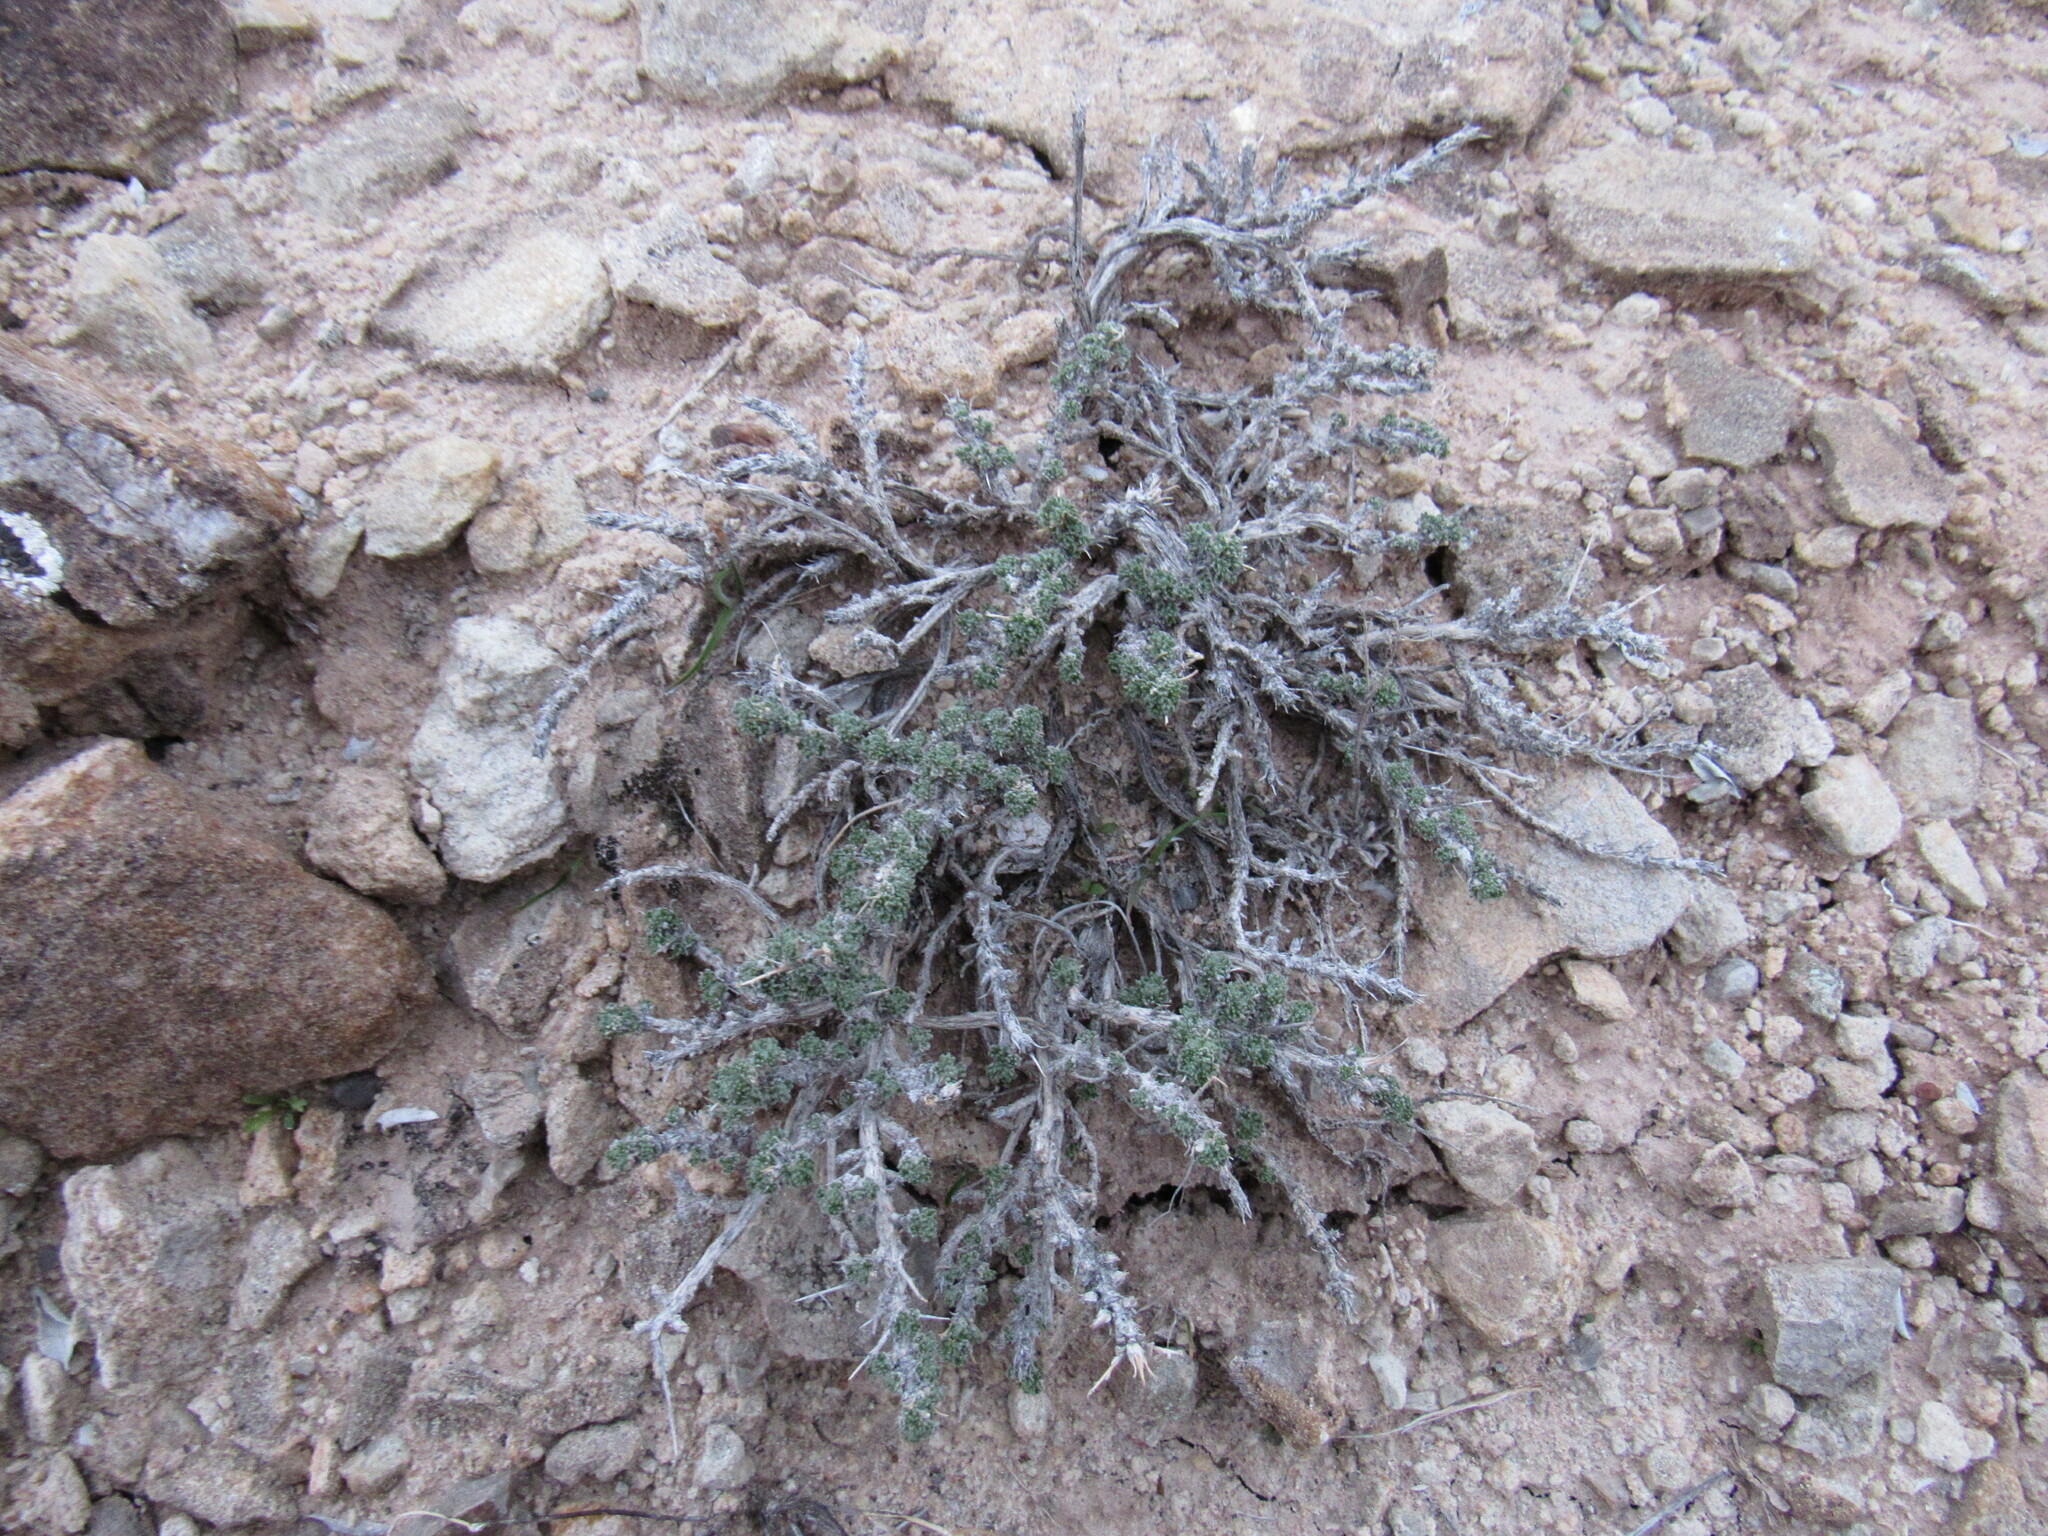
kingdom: Plantae
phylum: Tracheophyta
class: Magnoliopsida
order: Asterales
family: Asteraceae
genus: Artemisia
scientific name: Artemisia spinescens
